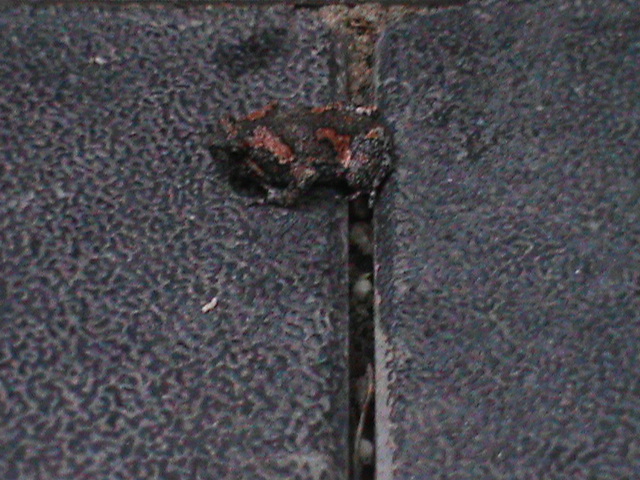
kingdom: Animalia
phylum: Chordata
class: Amphibia
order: Anura
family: Microhylidae
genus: Uperodon
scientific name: Uperodon taprobanicus
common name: Ceylon kaloula
